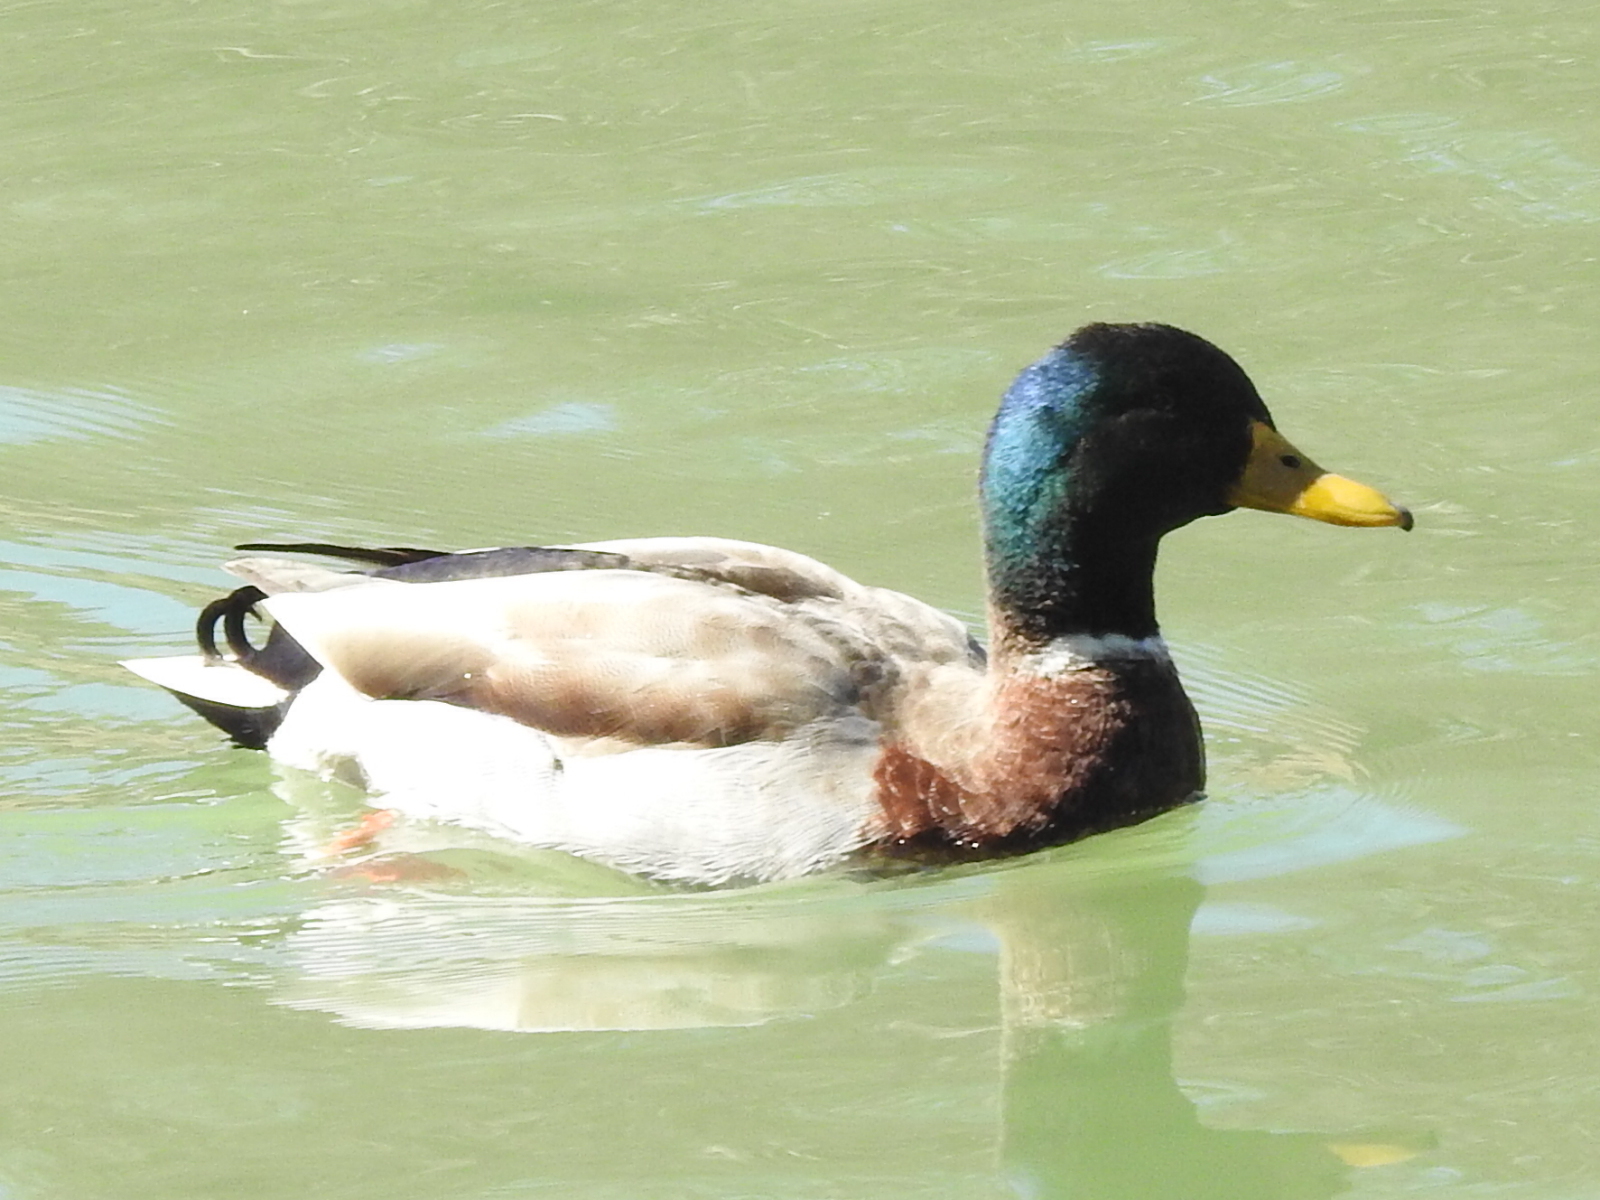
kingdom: Animalia
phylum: Chordata
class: Aves
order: Anseriformes
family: Anatidae
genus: Anas
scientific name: Anas platyrhynchos
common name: Mallard
